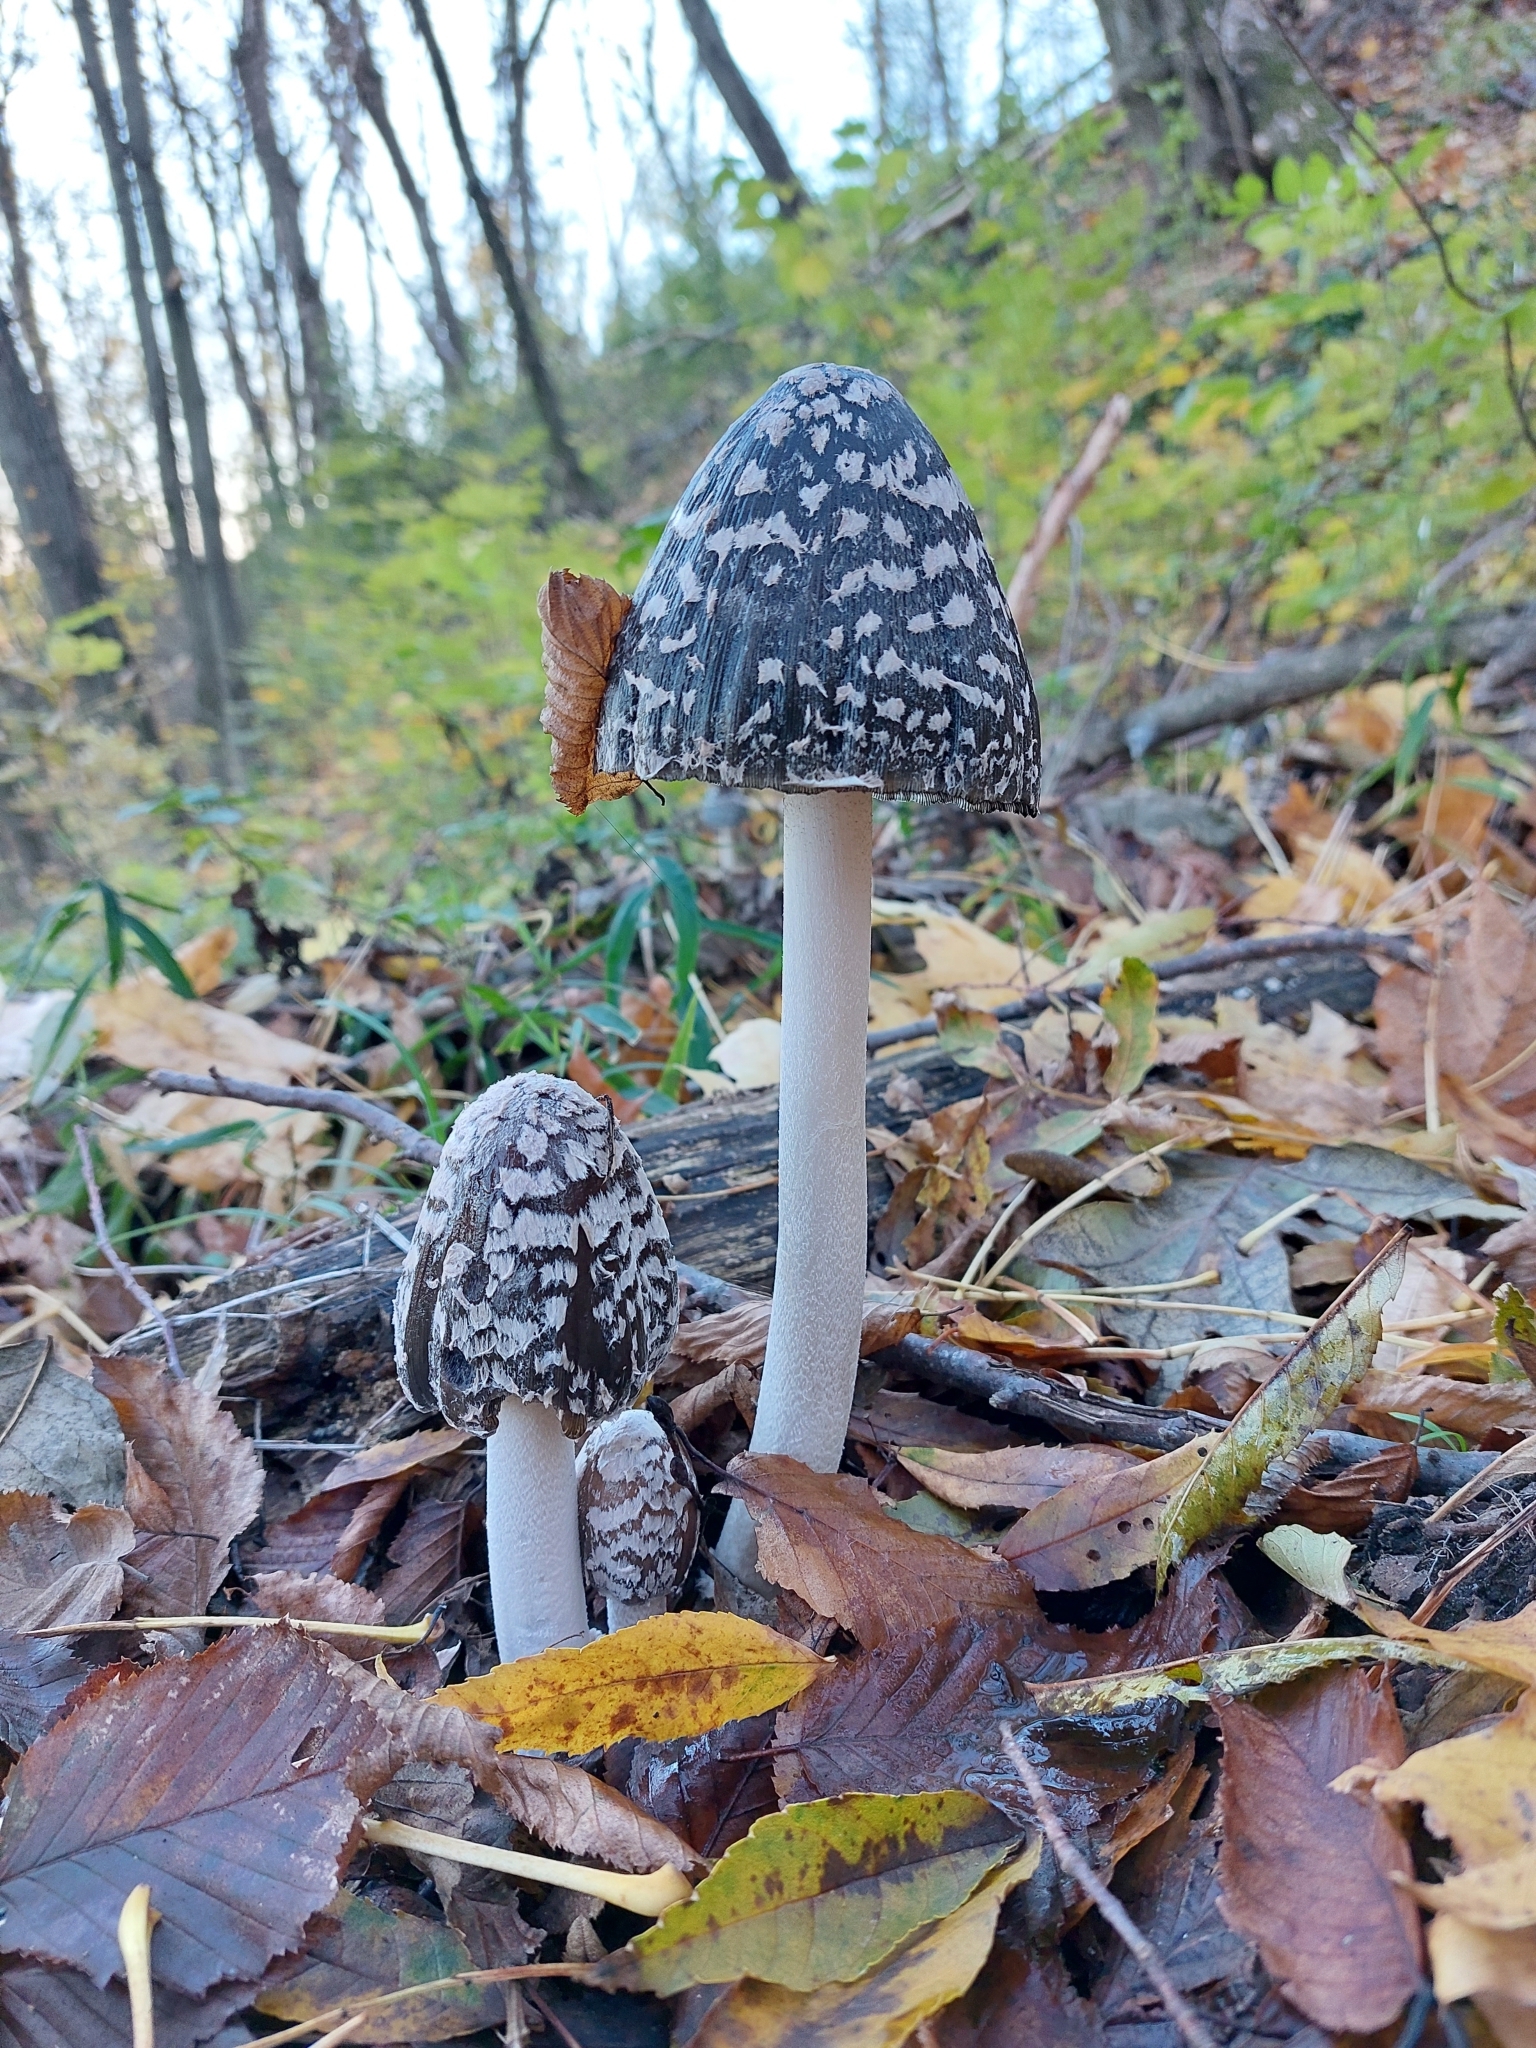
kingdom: Fungi
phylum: Basidiomycota
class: Agaricomycetes
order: Agaricales
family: Psathyrellaceae
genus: Coprinopsis
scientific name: Coprinopsis picacea
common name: Magpie inkcap
